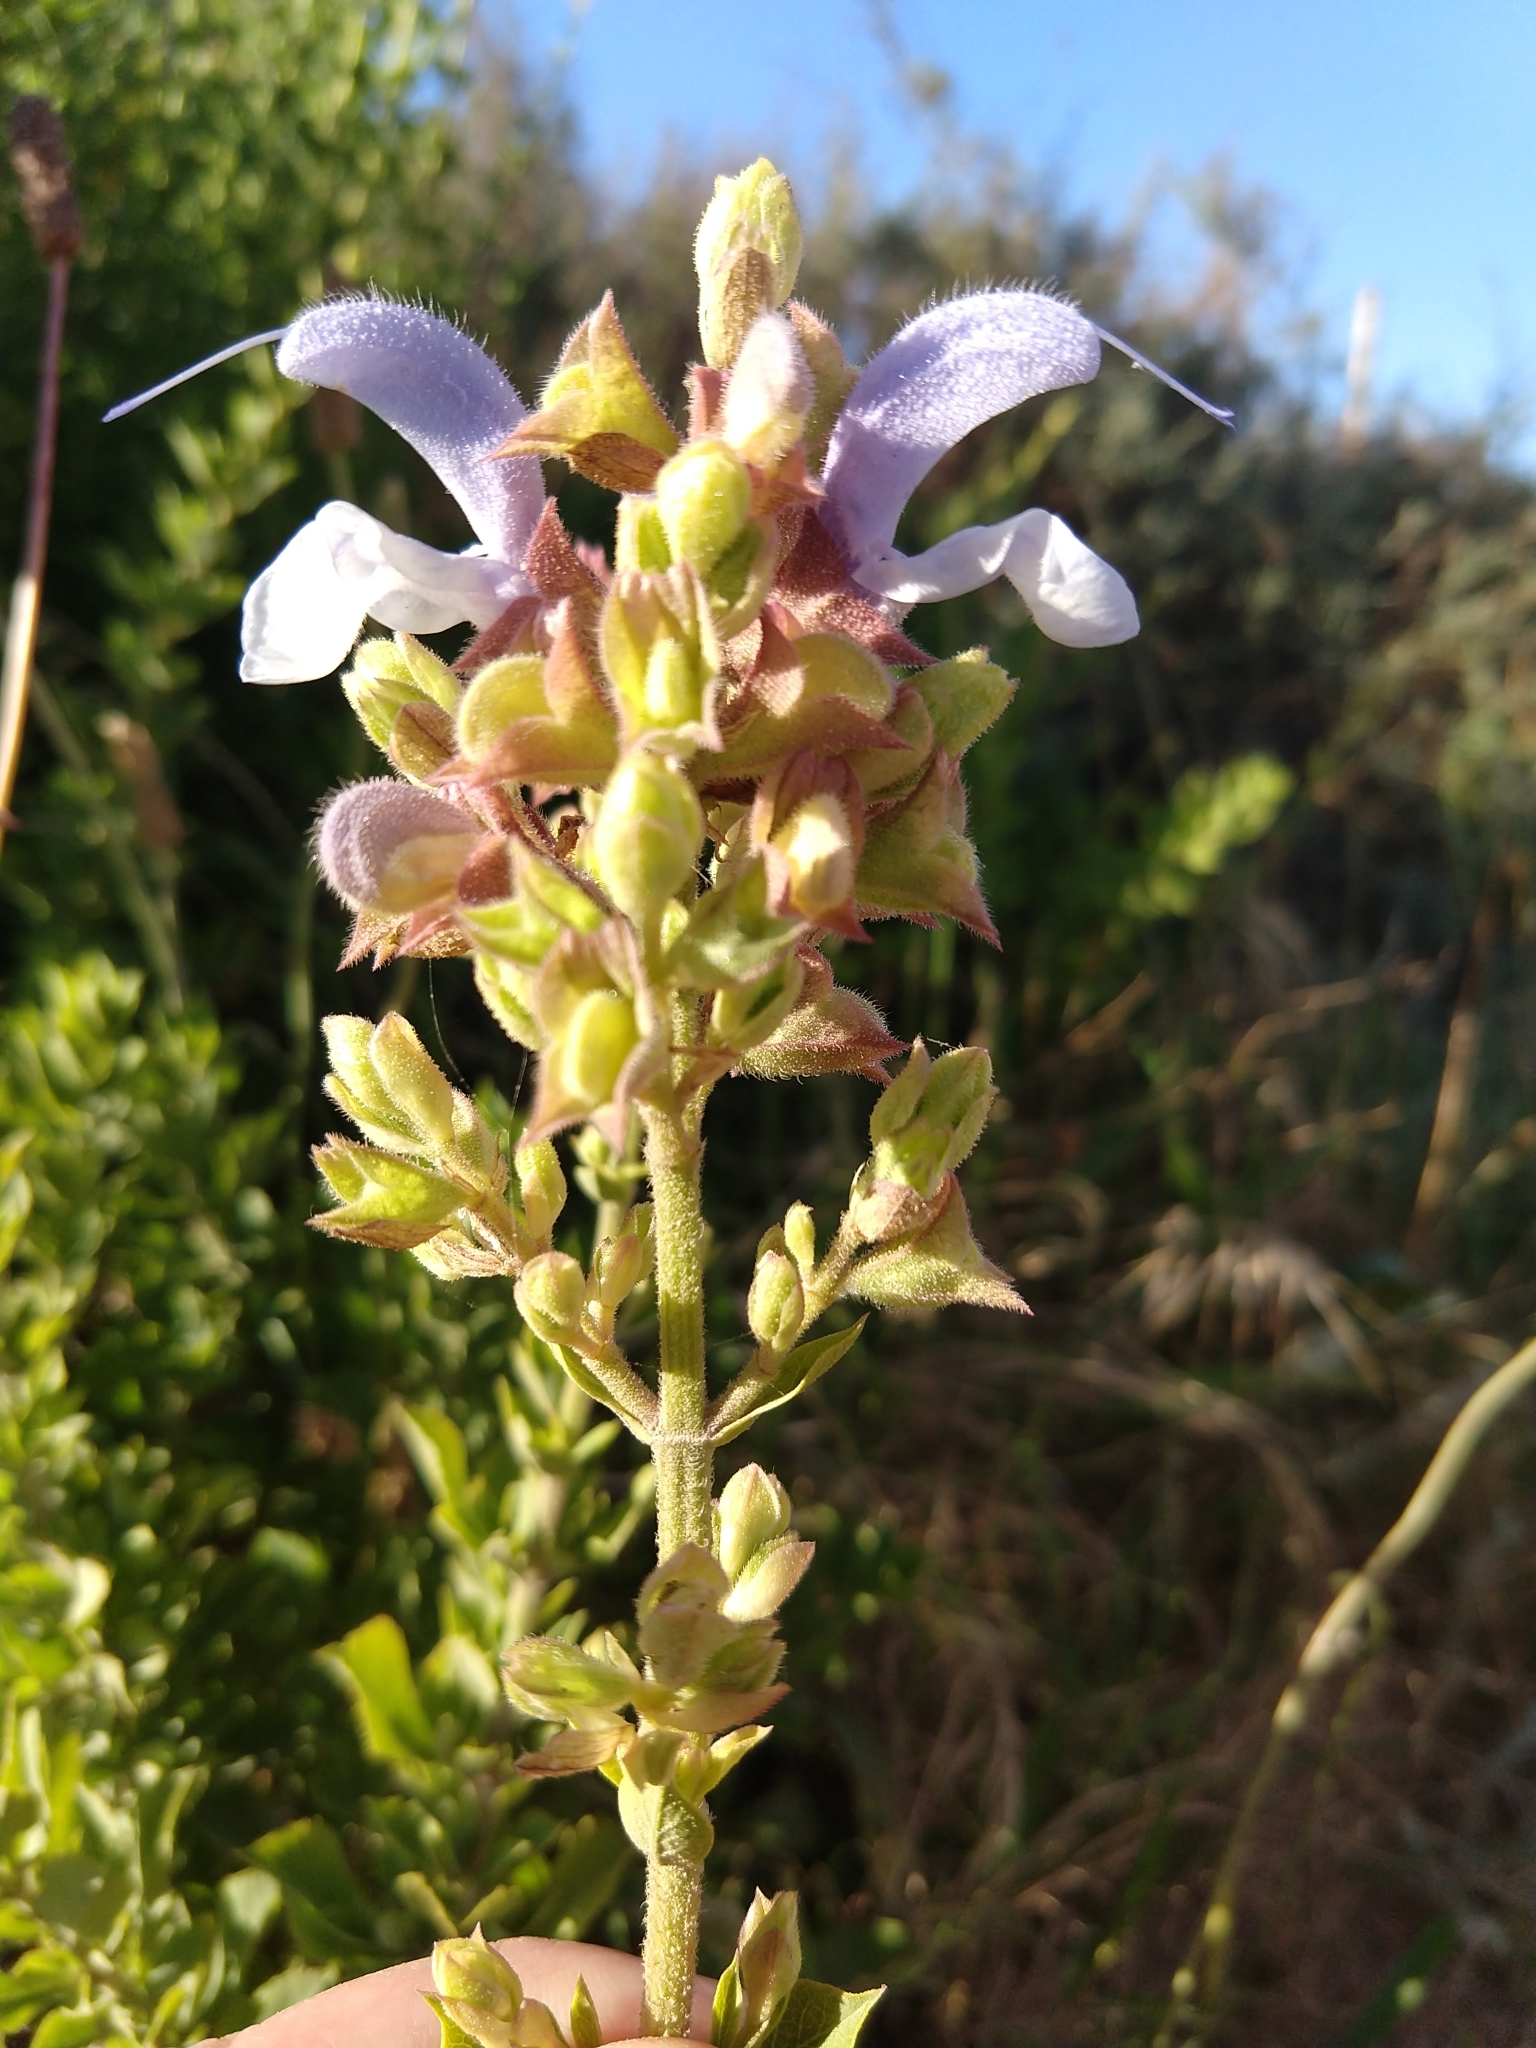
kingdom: Plantae
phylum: Tracheophyta
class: Magnoliopsida
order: Lamiales
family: Lamiaceae
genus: Salvia
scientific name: Salvia chamelaeagnea
